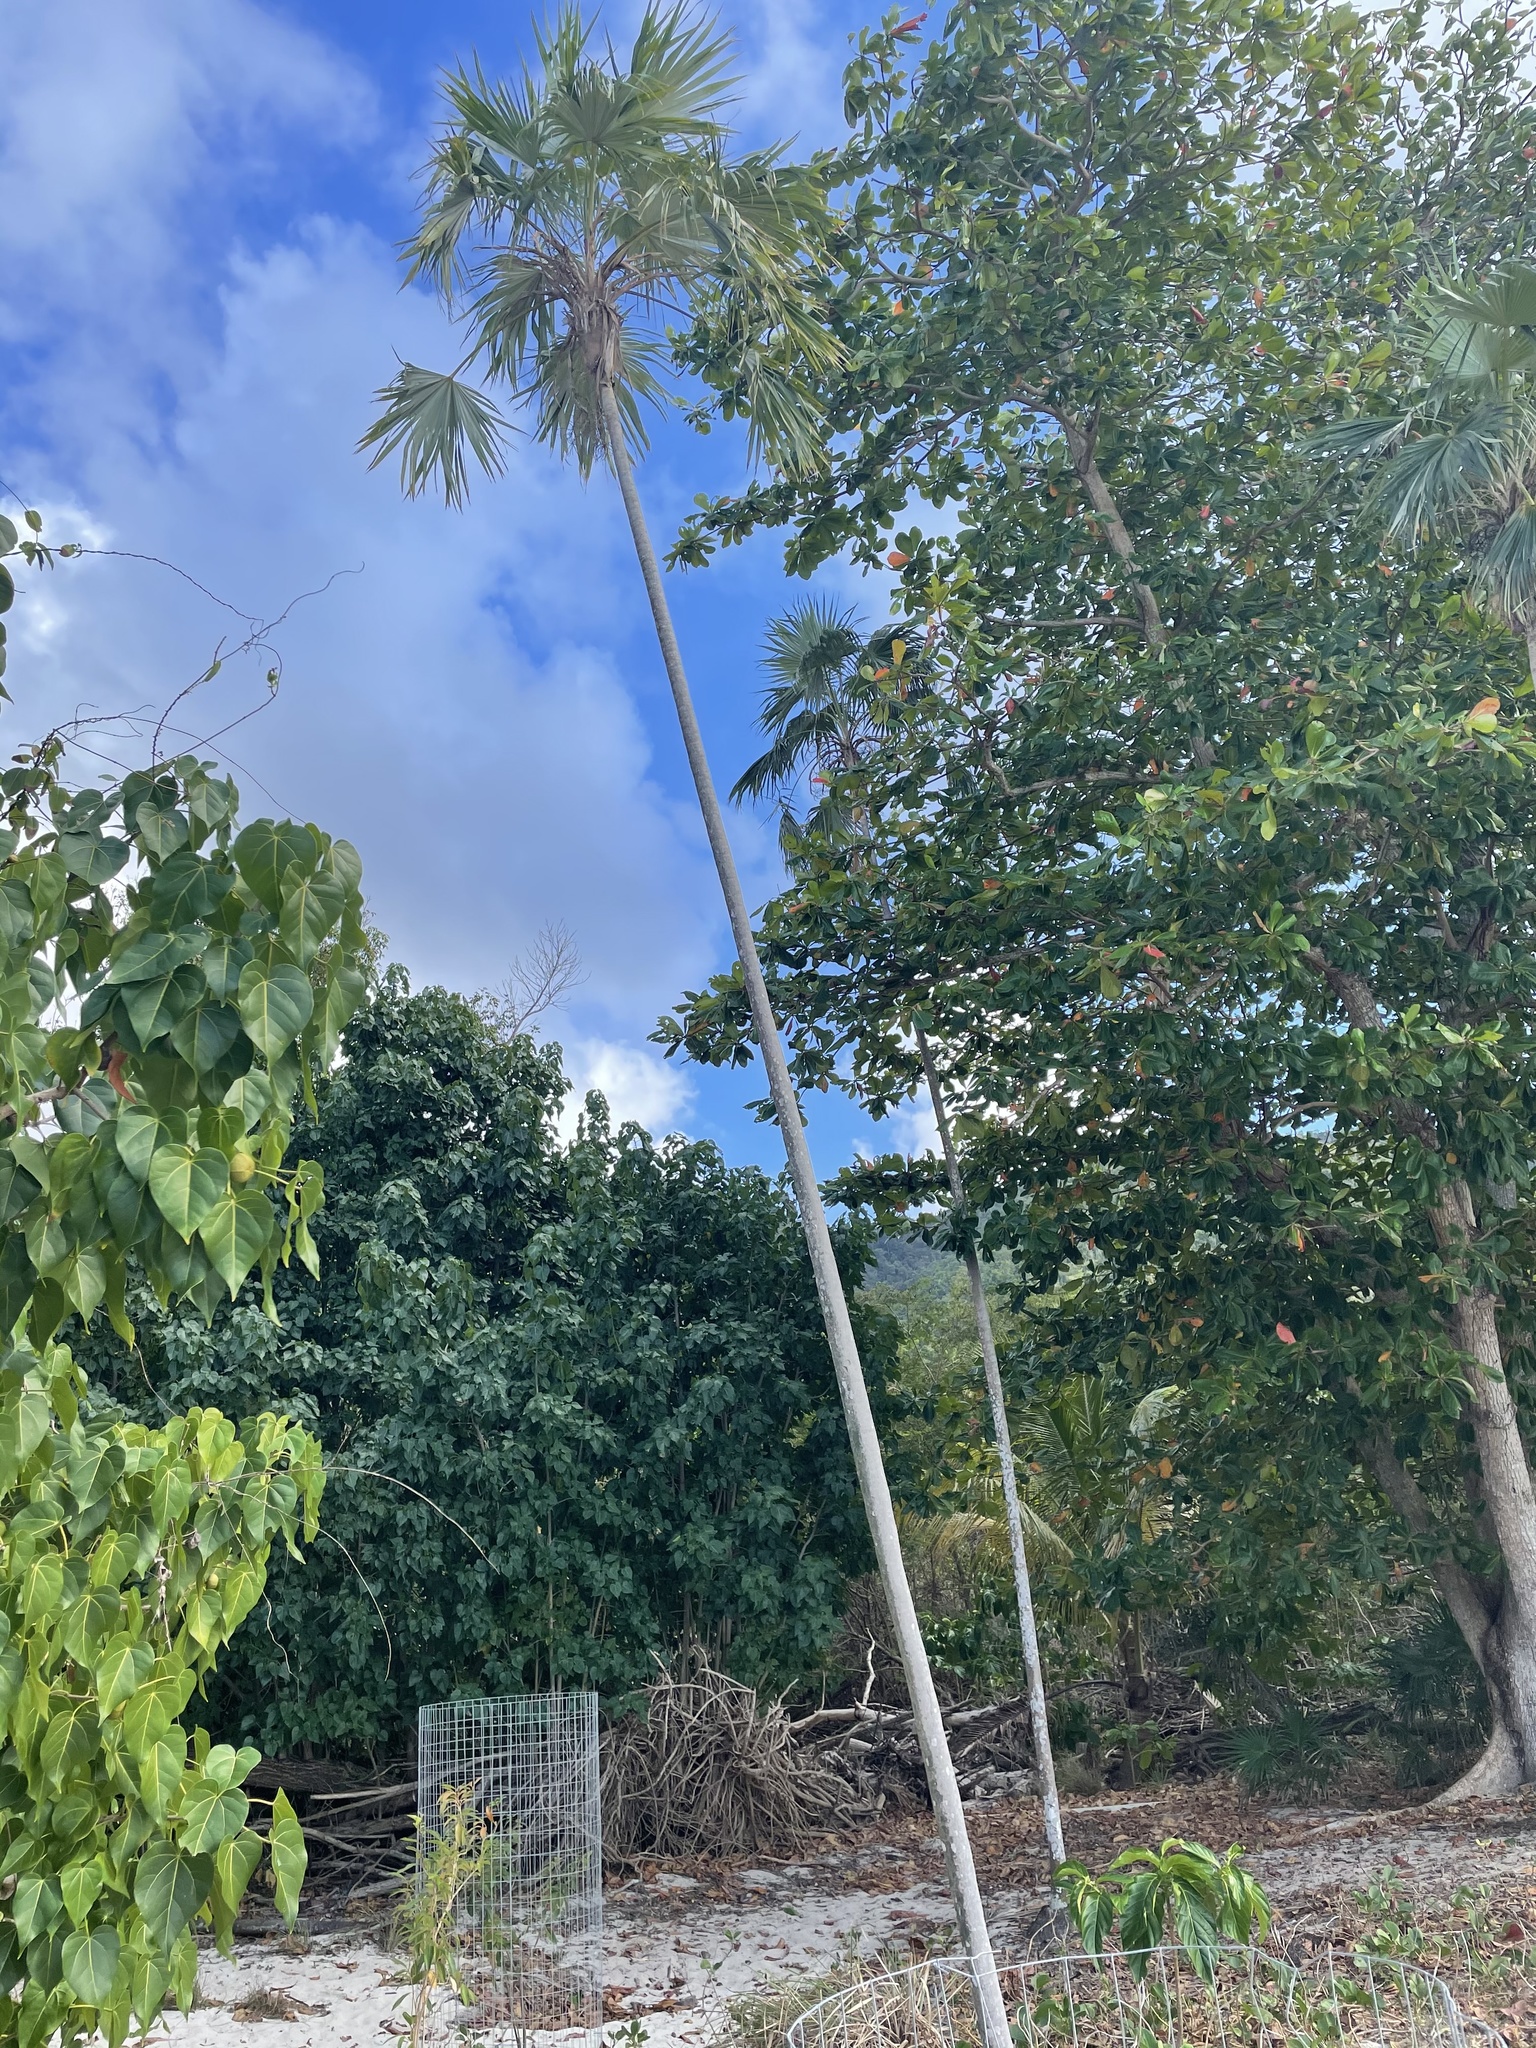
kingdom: Plantae
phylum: Tracheophyta
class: Liliopsida
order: Arecales
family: Arecaceae
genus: Leucothrinax
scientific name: Leucothrinax morrisii
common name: Key palm
